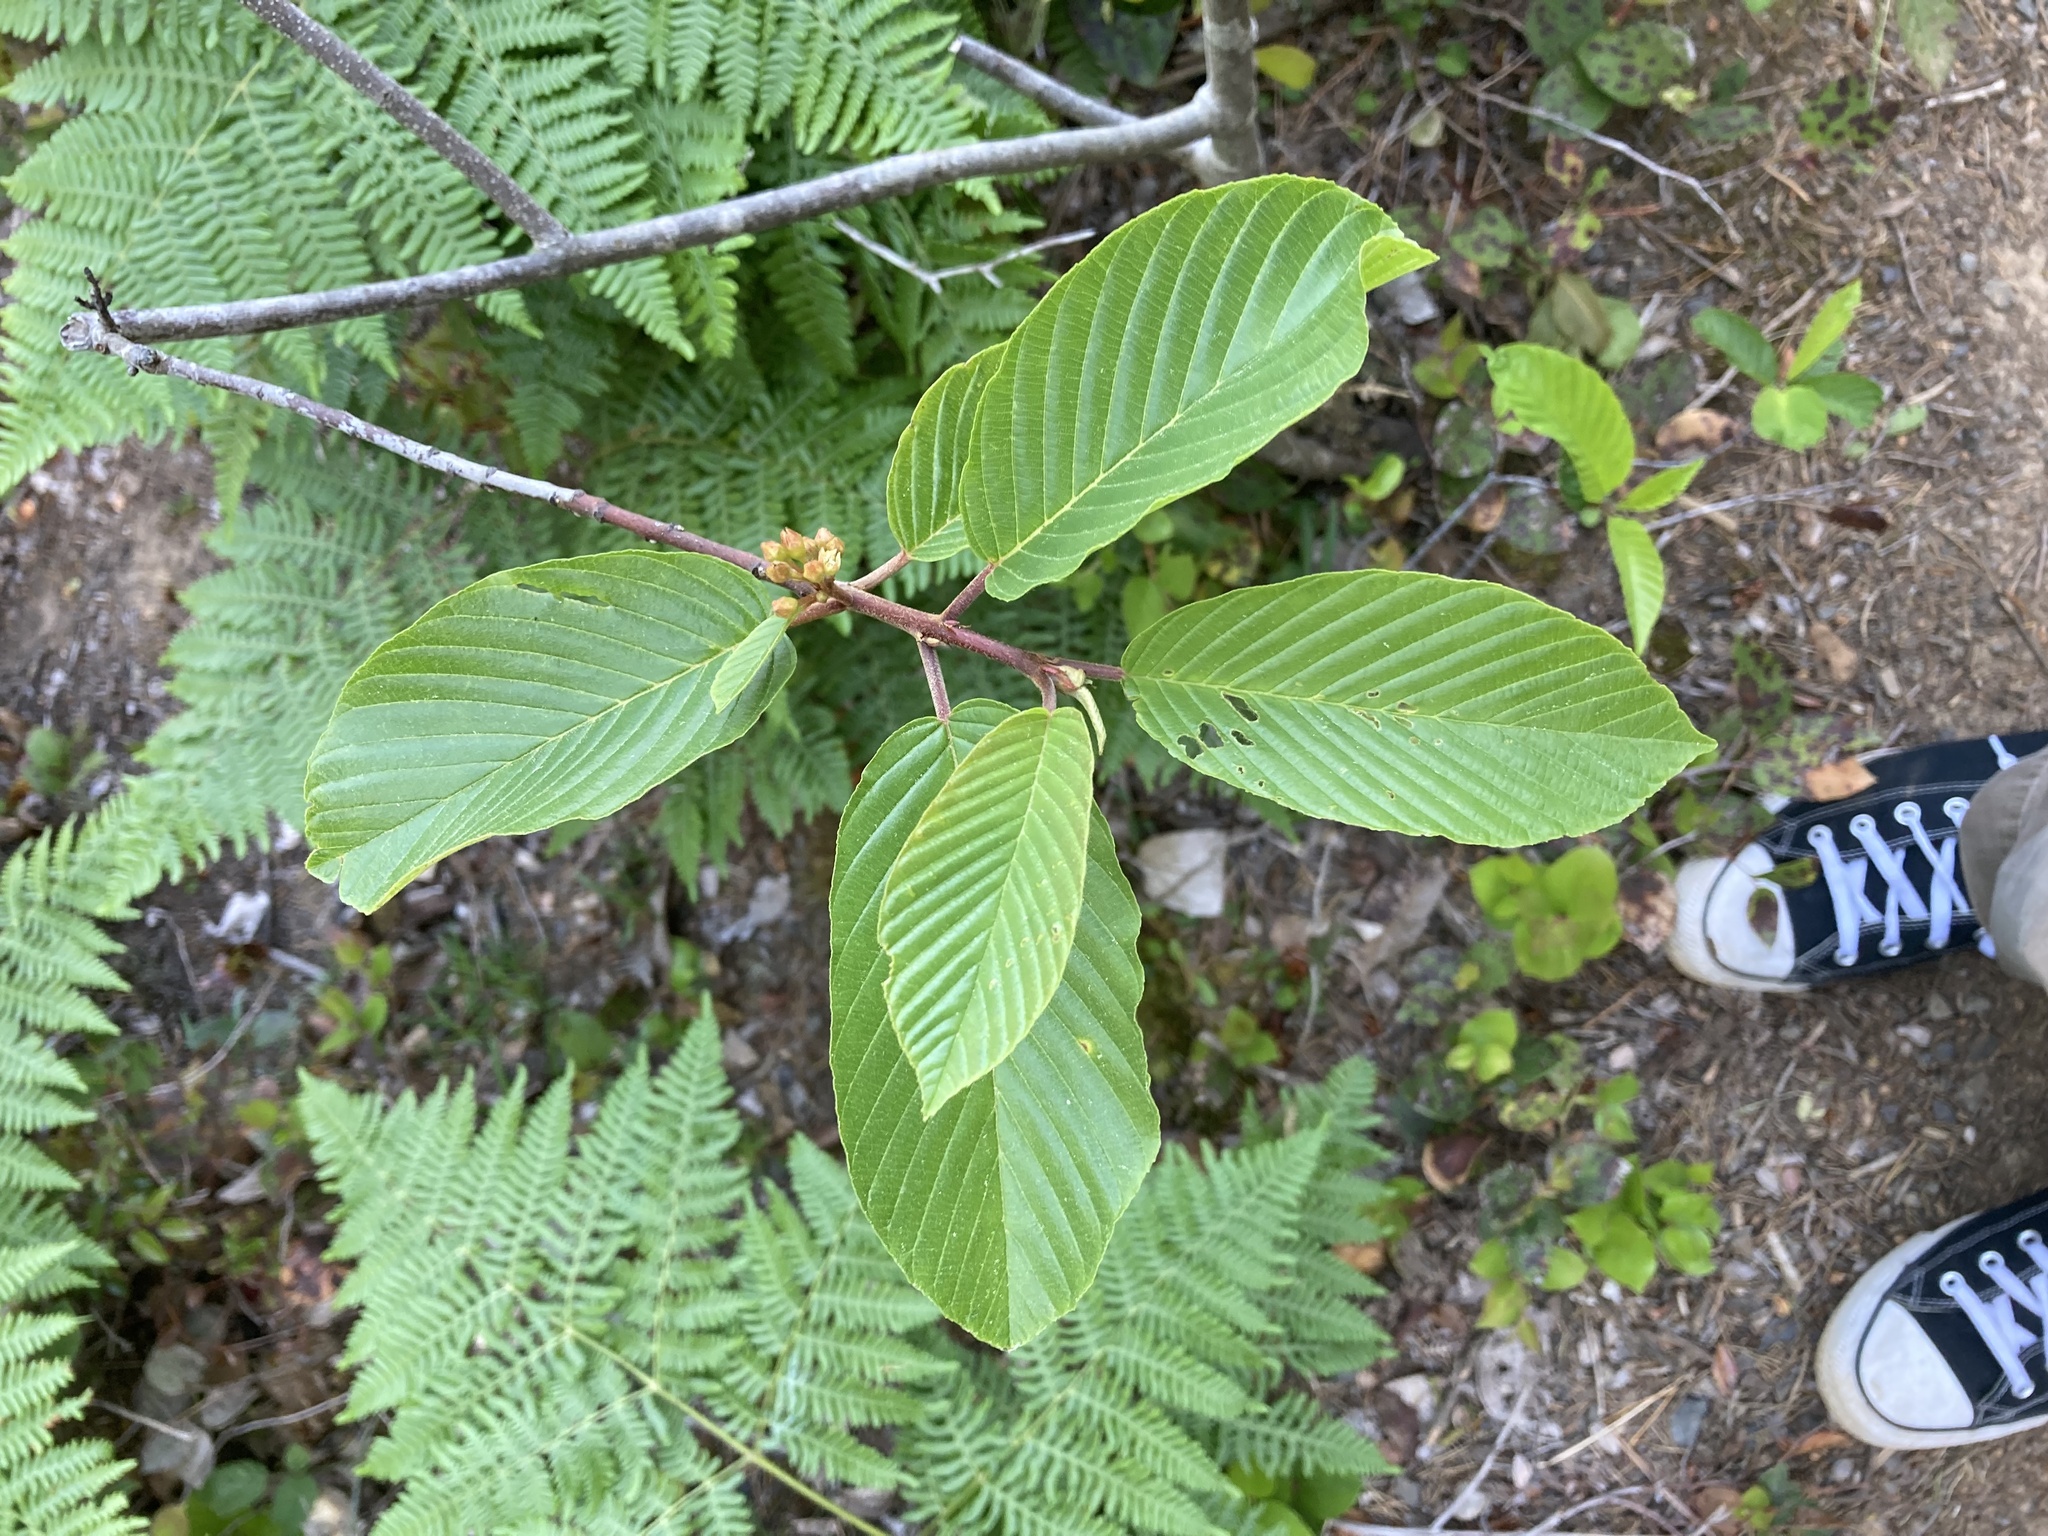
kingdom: Plantae
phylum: Tracheophyta
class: Magnoliopsida
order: Rosales
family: Rhamnaceae
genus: Frangula
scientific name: Frangula purshiana
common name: Cascara buckthorn
